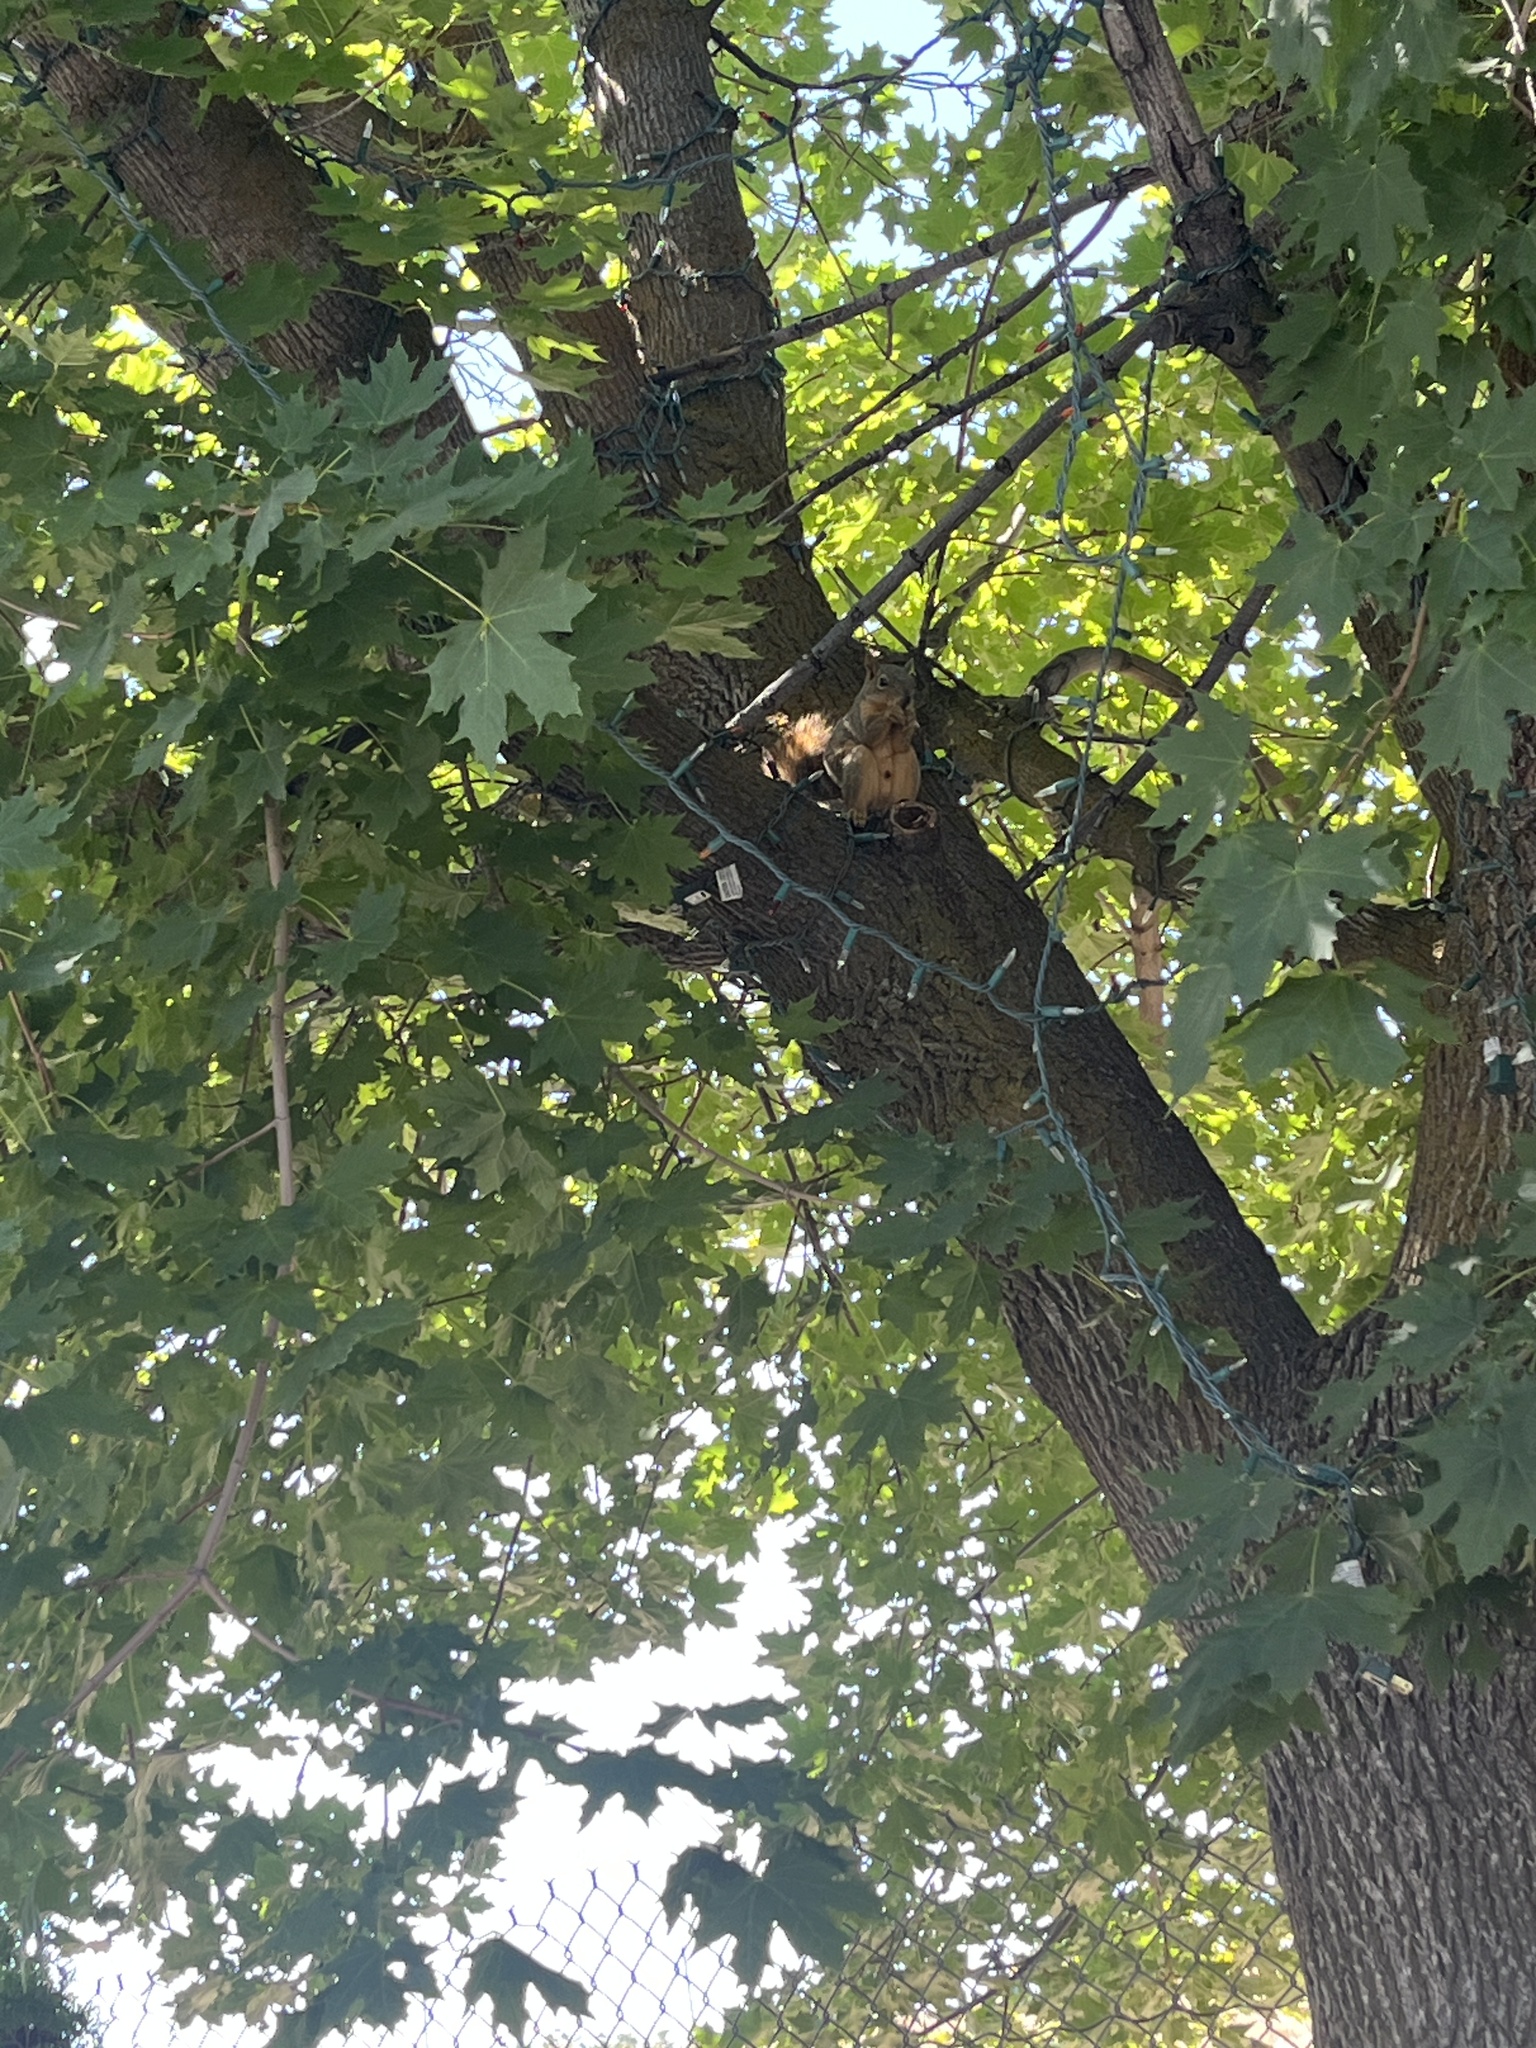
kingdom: Animalia
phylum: Chordata
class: Mammalia
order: Rodentia
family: Sciuridae
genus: Sciurus
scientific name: Sciurus niger
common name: Fox squirrel
